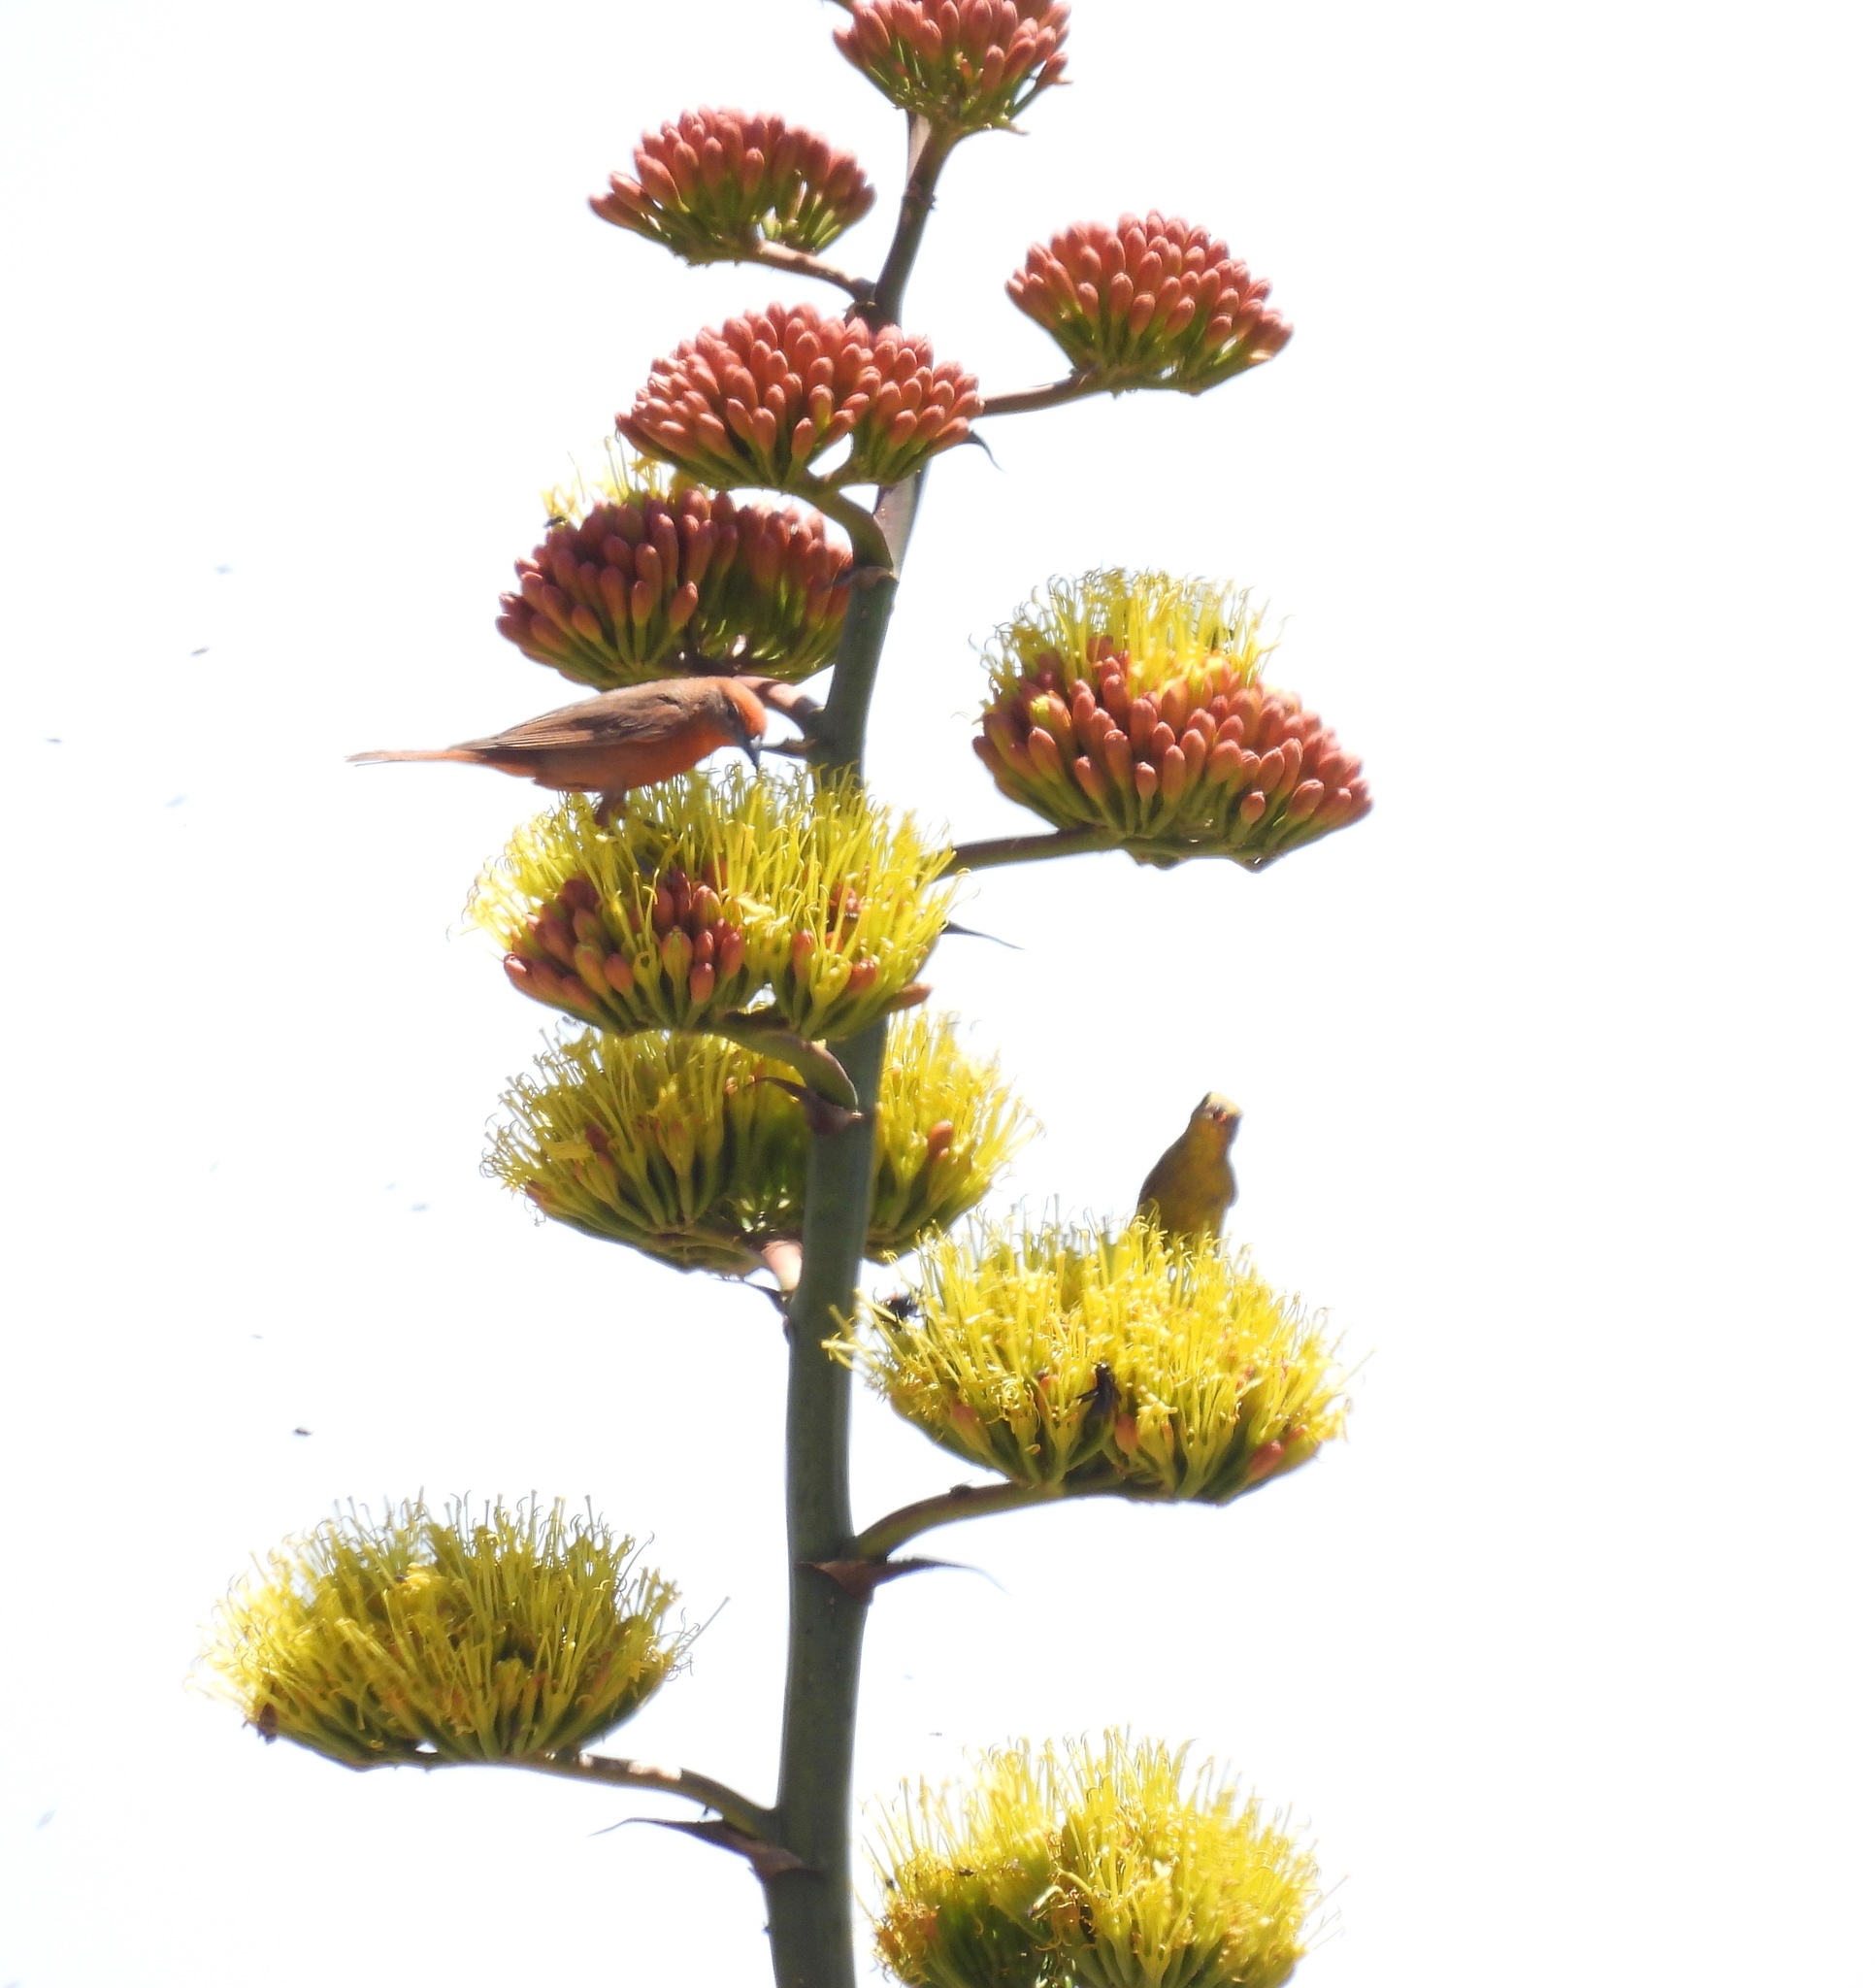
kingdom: Animalia
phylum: Chordata
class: Aves
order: Passeriformes
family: Cardinalidae
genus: Piranga
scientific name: Piranga flava
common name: Red tanager
